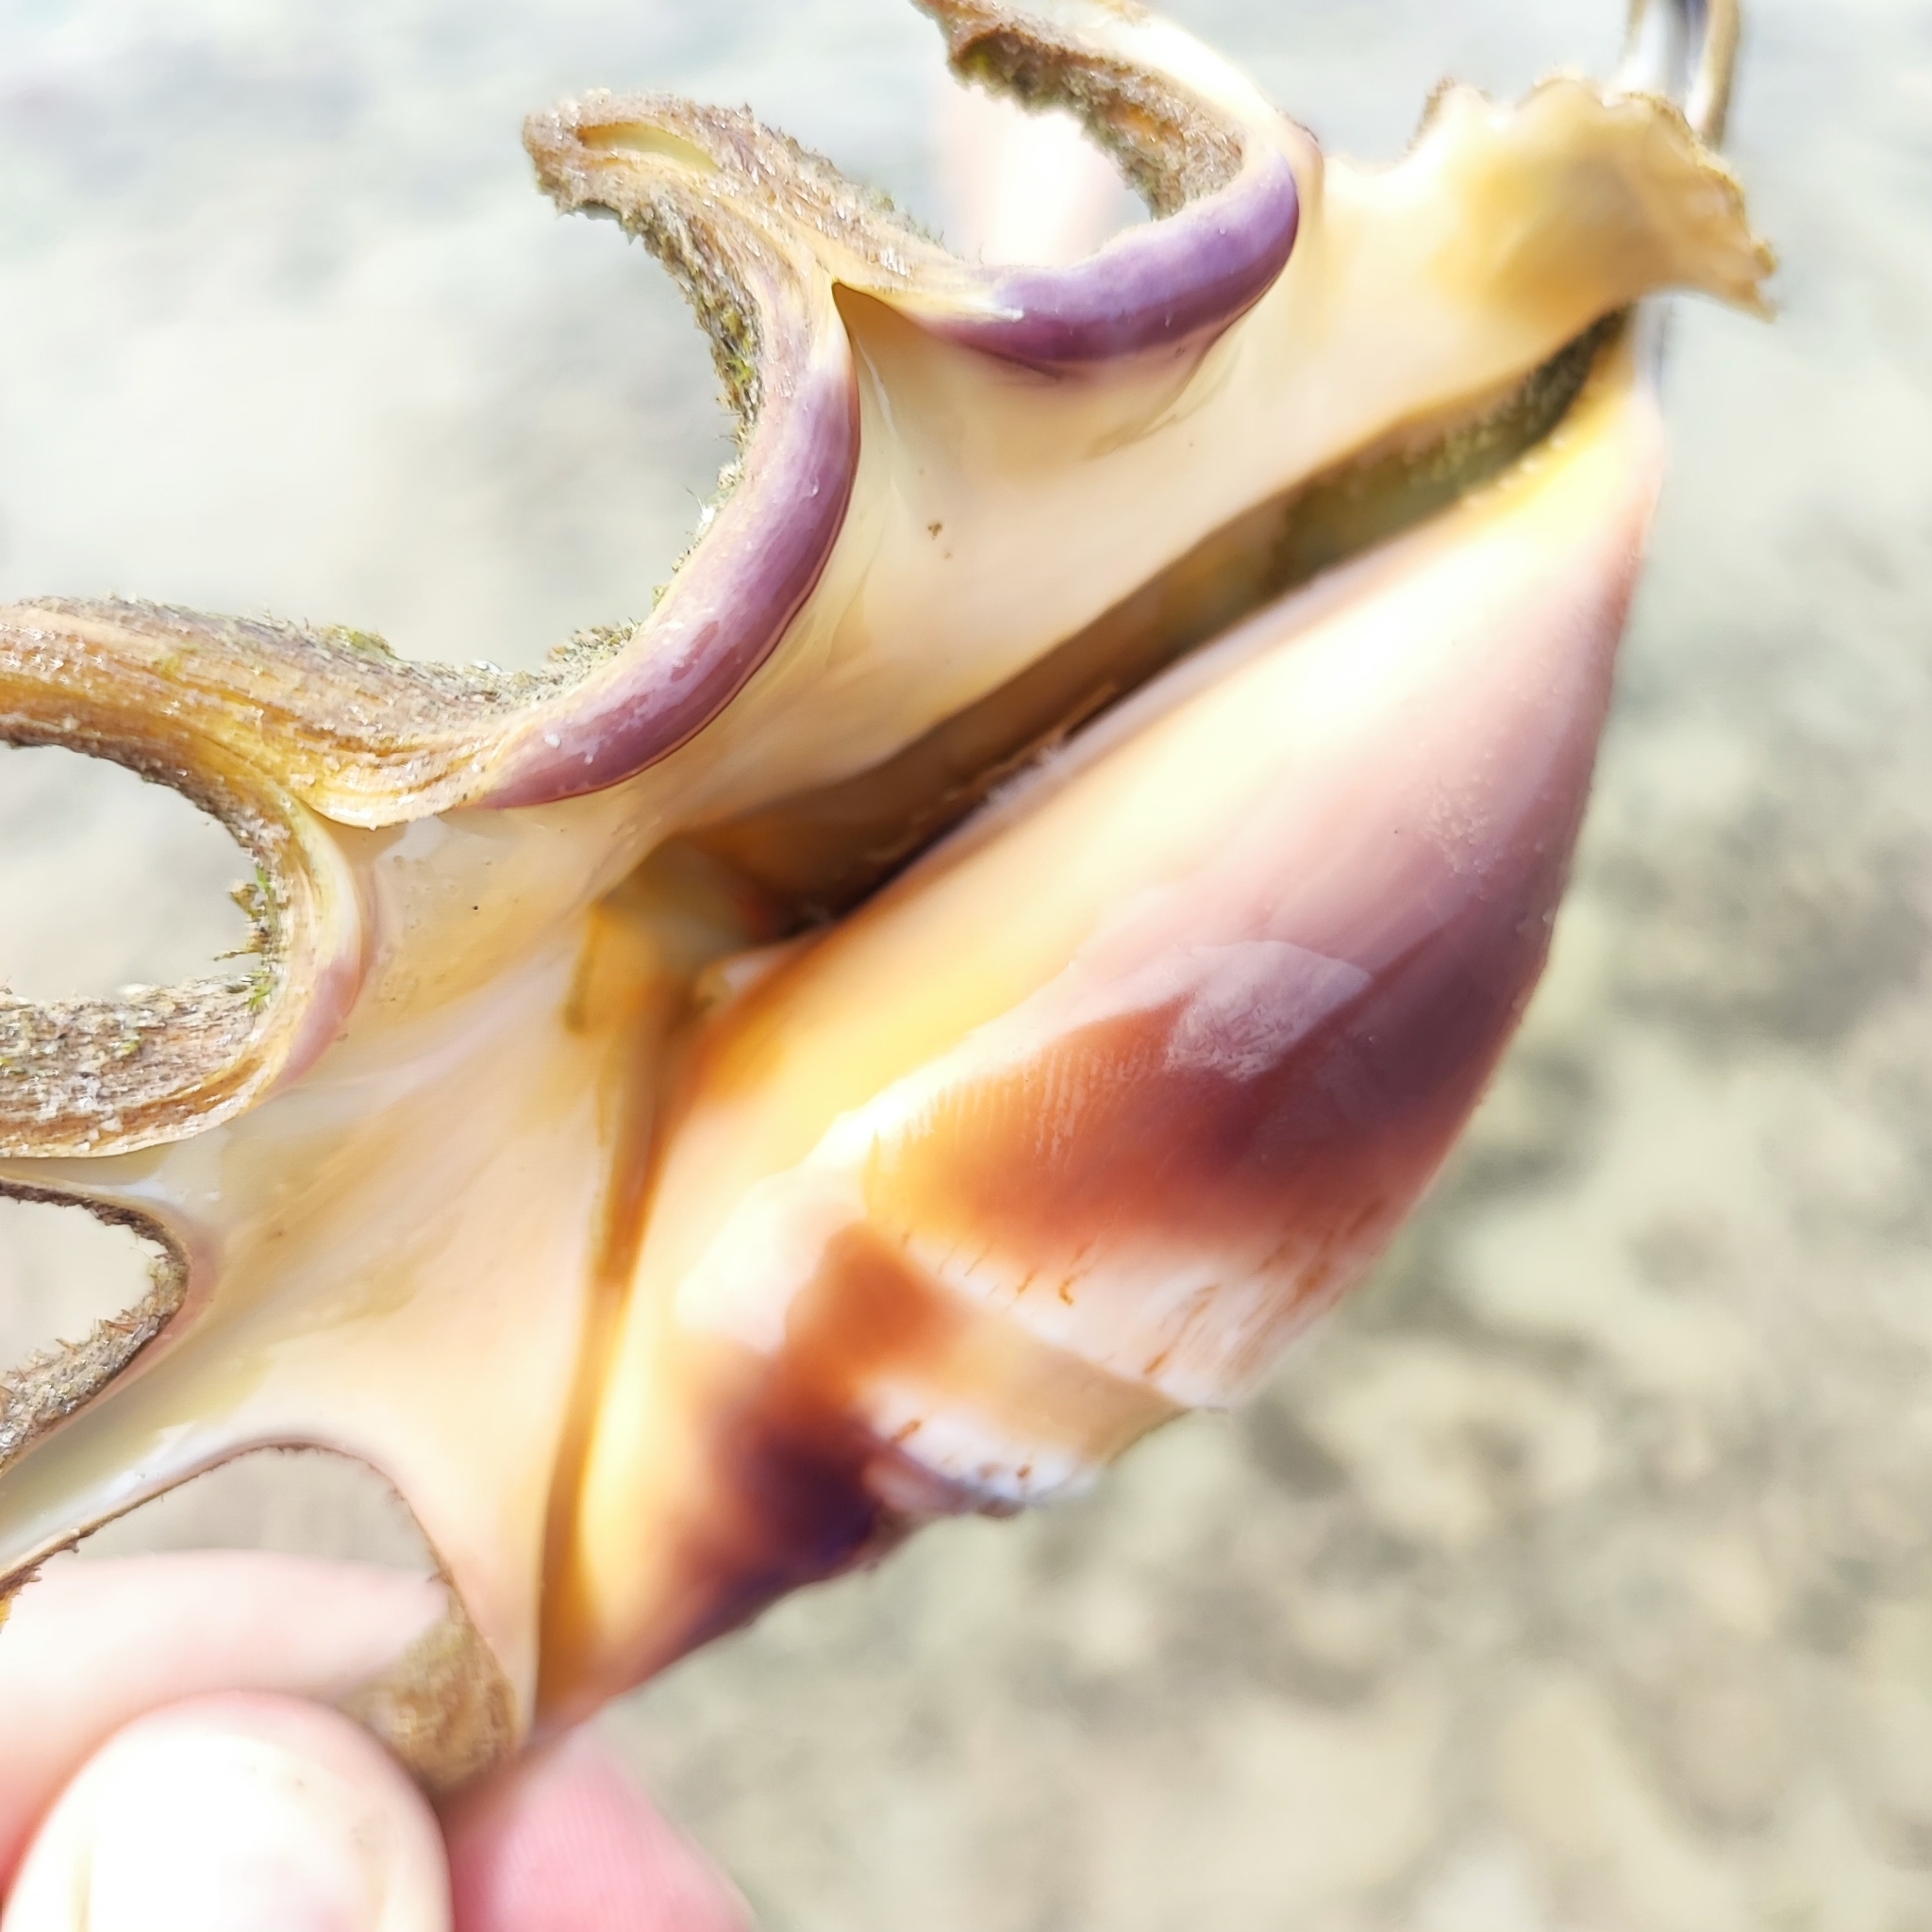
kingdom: Animalia
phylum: Mollusca
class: Gastropoda
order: Littorinimorpha
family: Strombidae
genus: Lambis
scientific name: Lambis lambis
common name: Common spider conch
